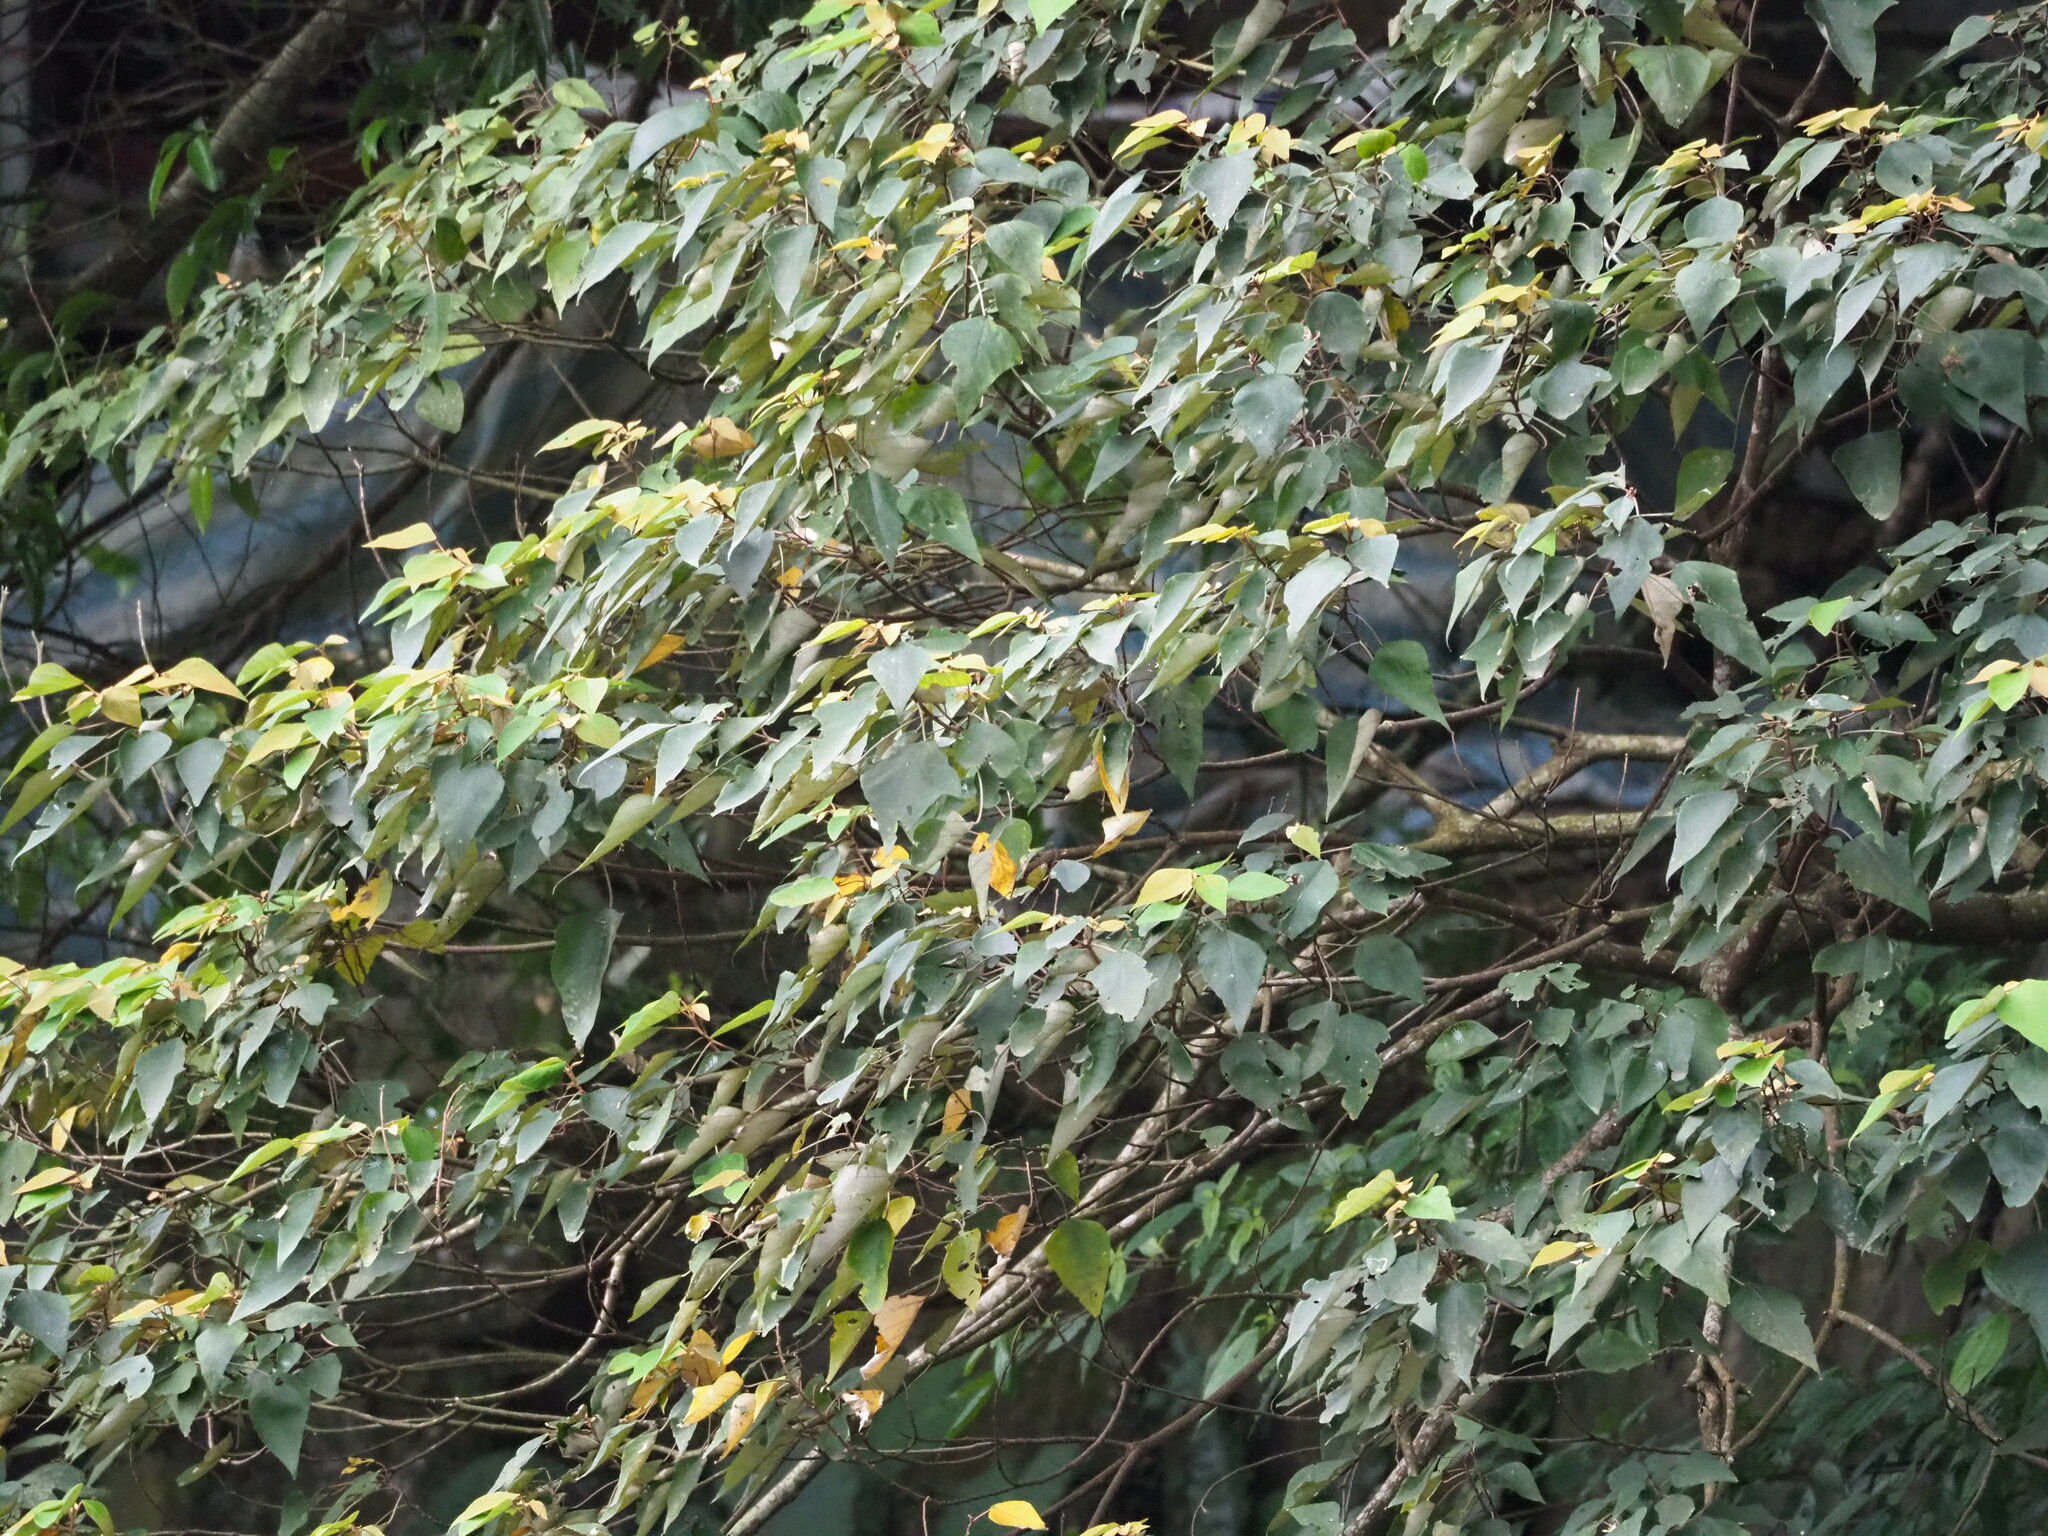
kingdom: Plantae
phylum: Tracheophyta
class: Magnoliopsida
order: Malpighiales
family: Euphorbiaceae
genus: Mallotus
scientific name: Mallotus paniculatus
